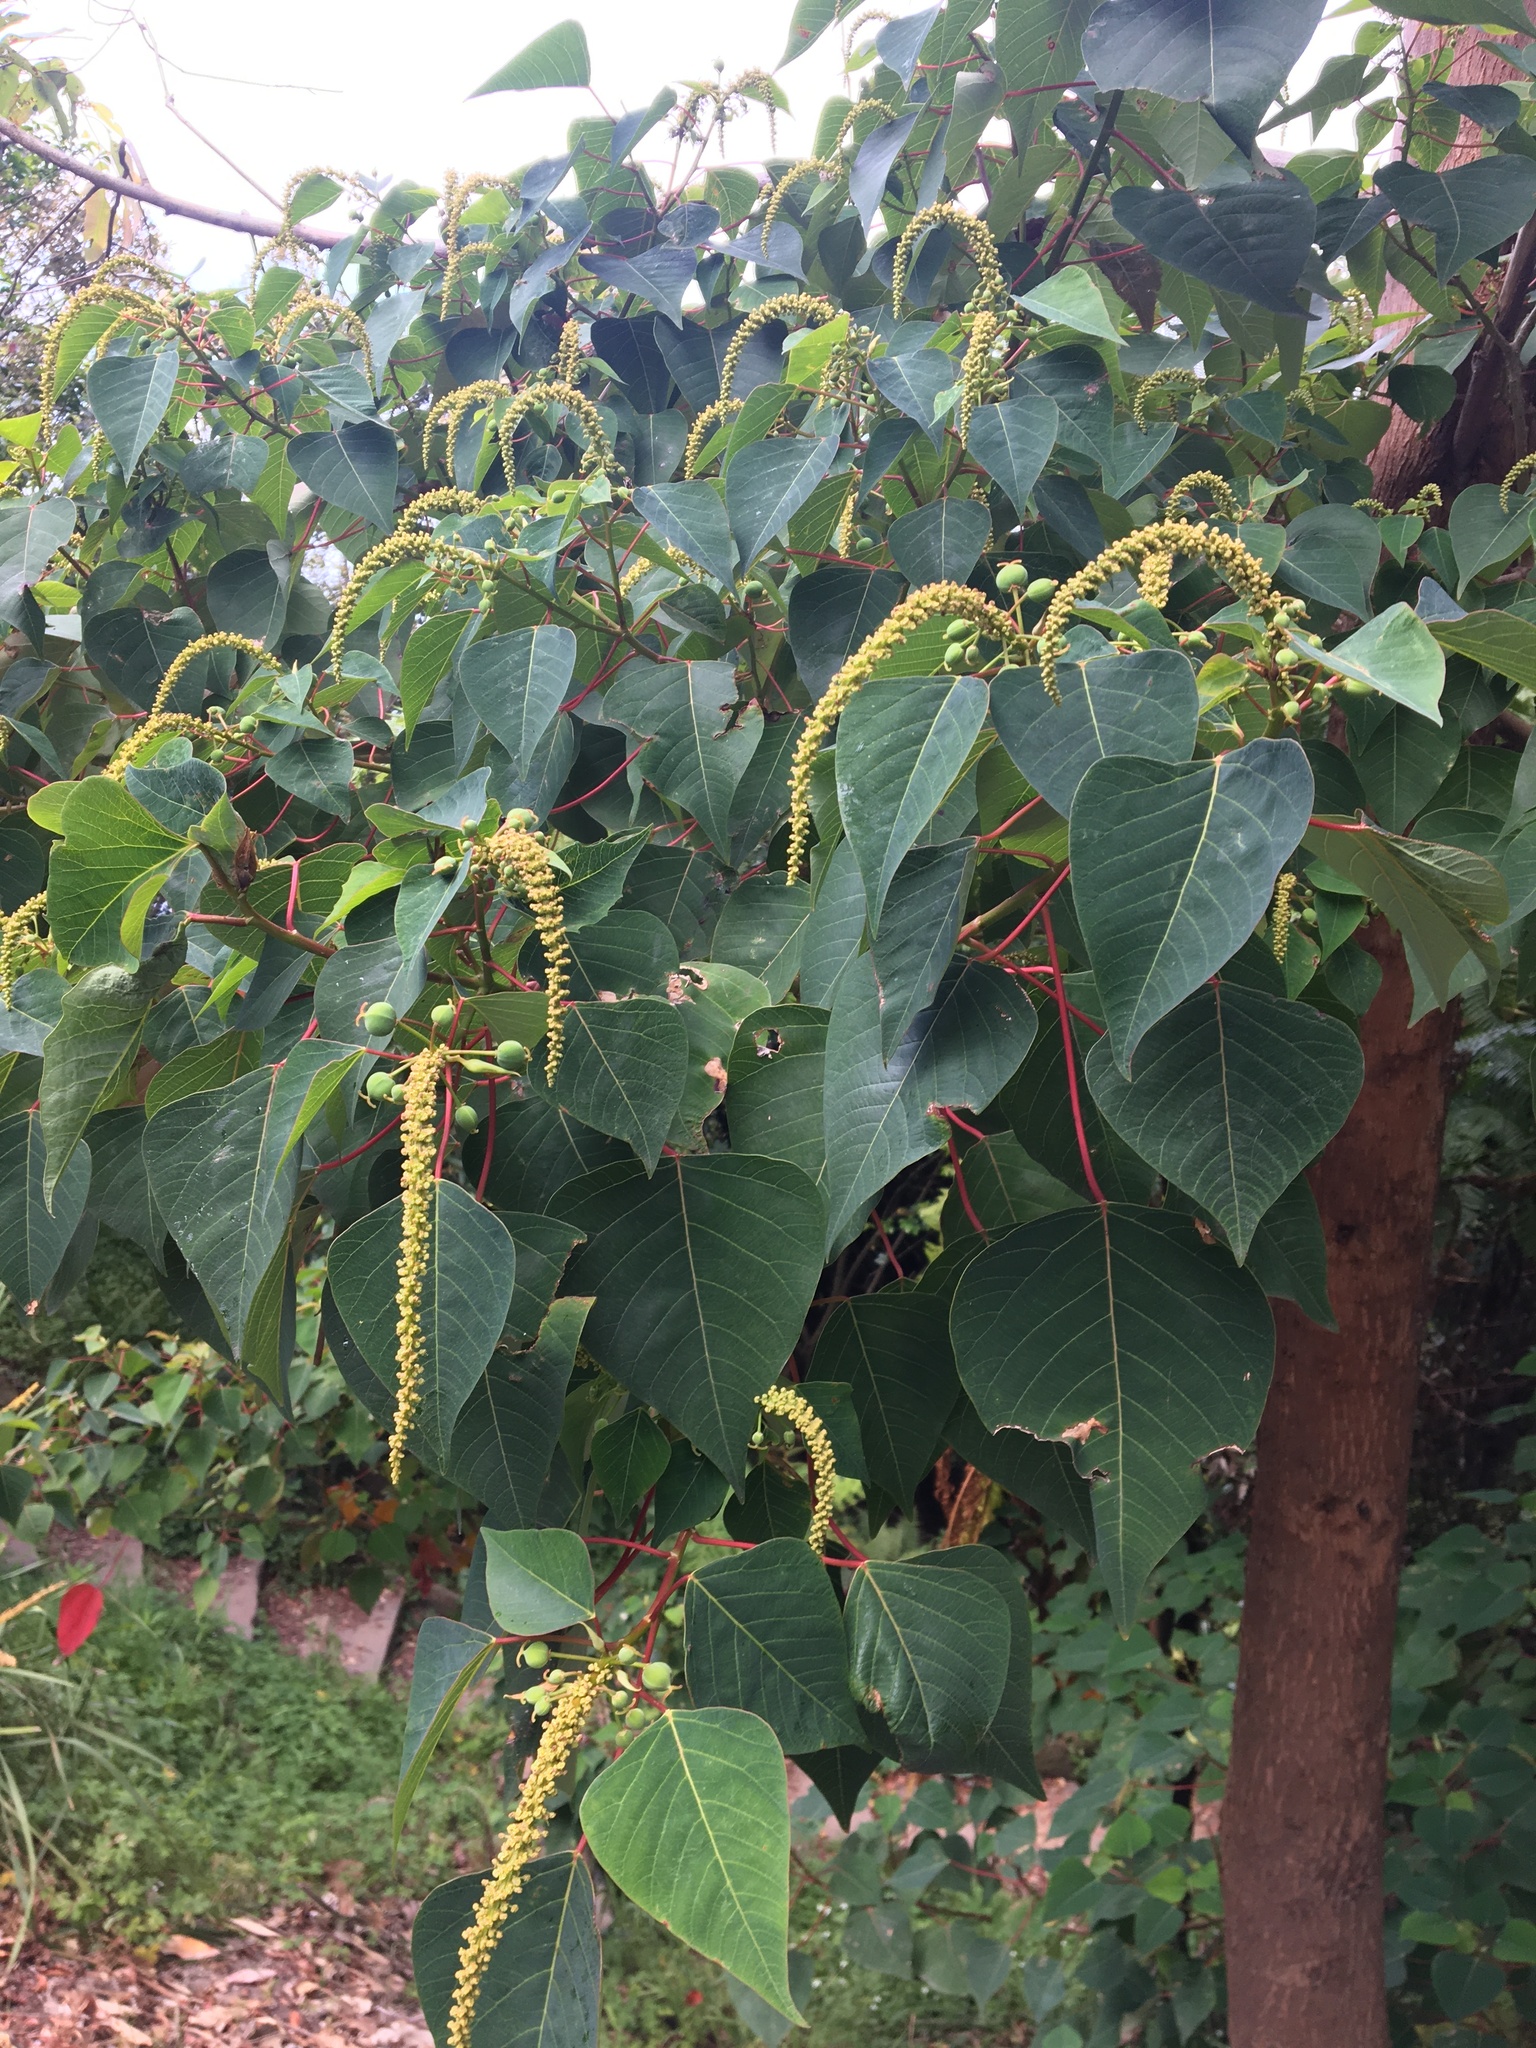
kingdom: Plantae
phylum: Tracheophyta
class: Magnoliopsida
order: Malpighiales
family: Euphorbiaceae
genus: Homalanthus
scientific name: Homalanthus populifolius
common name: Queensland poplar
